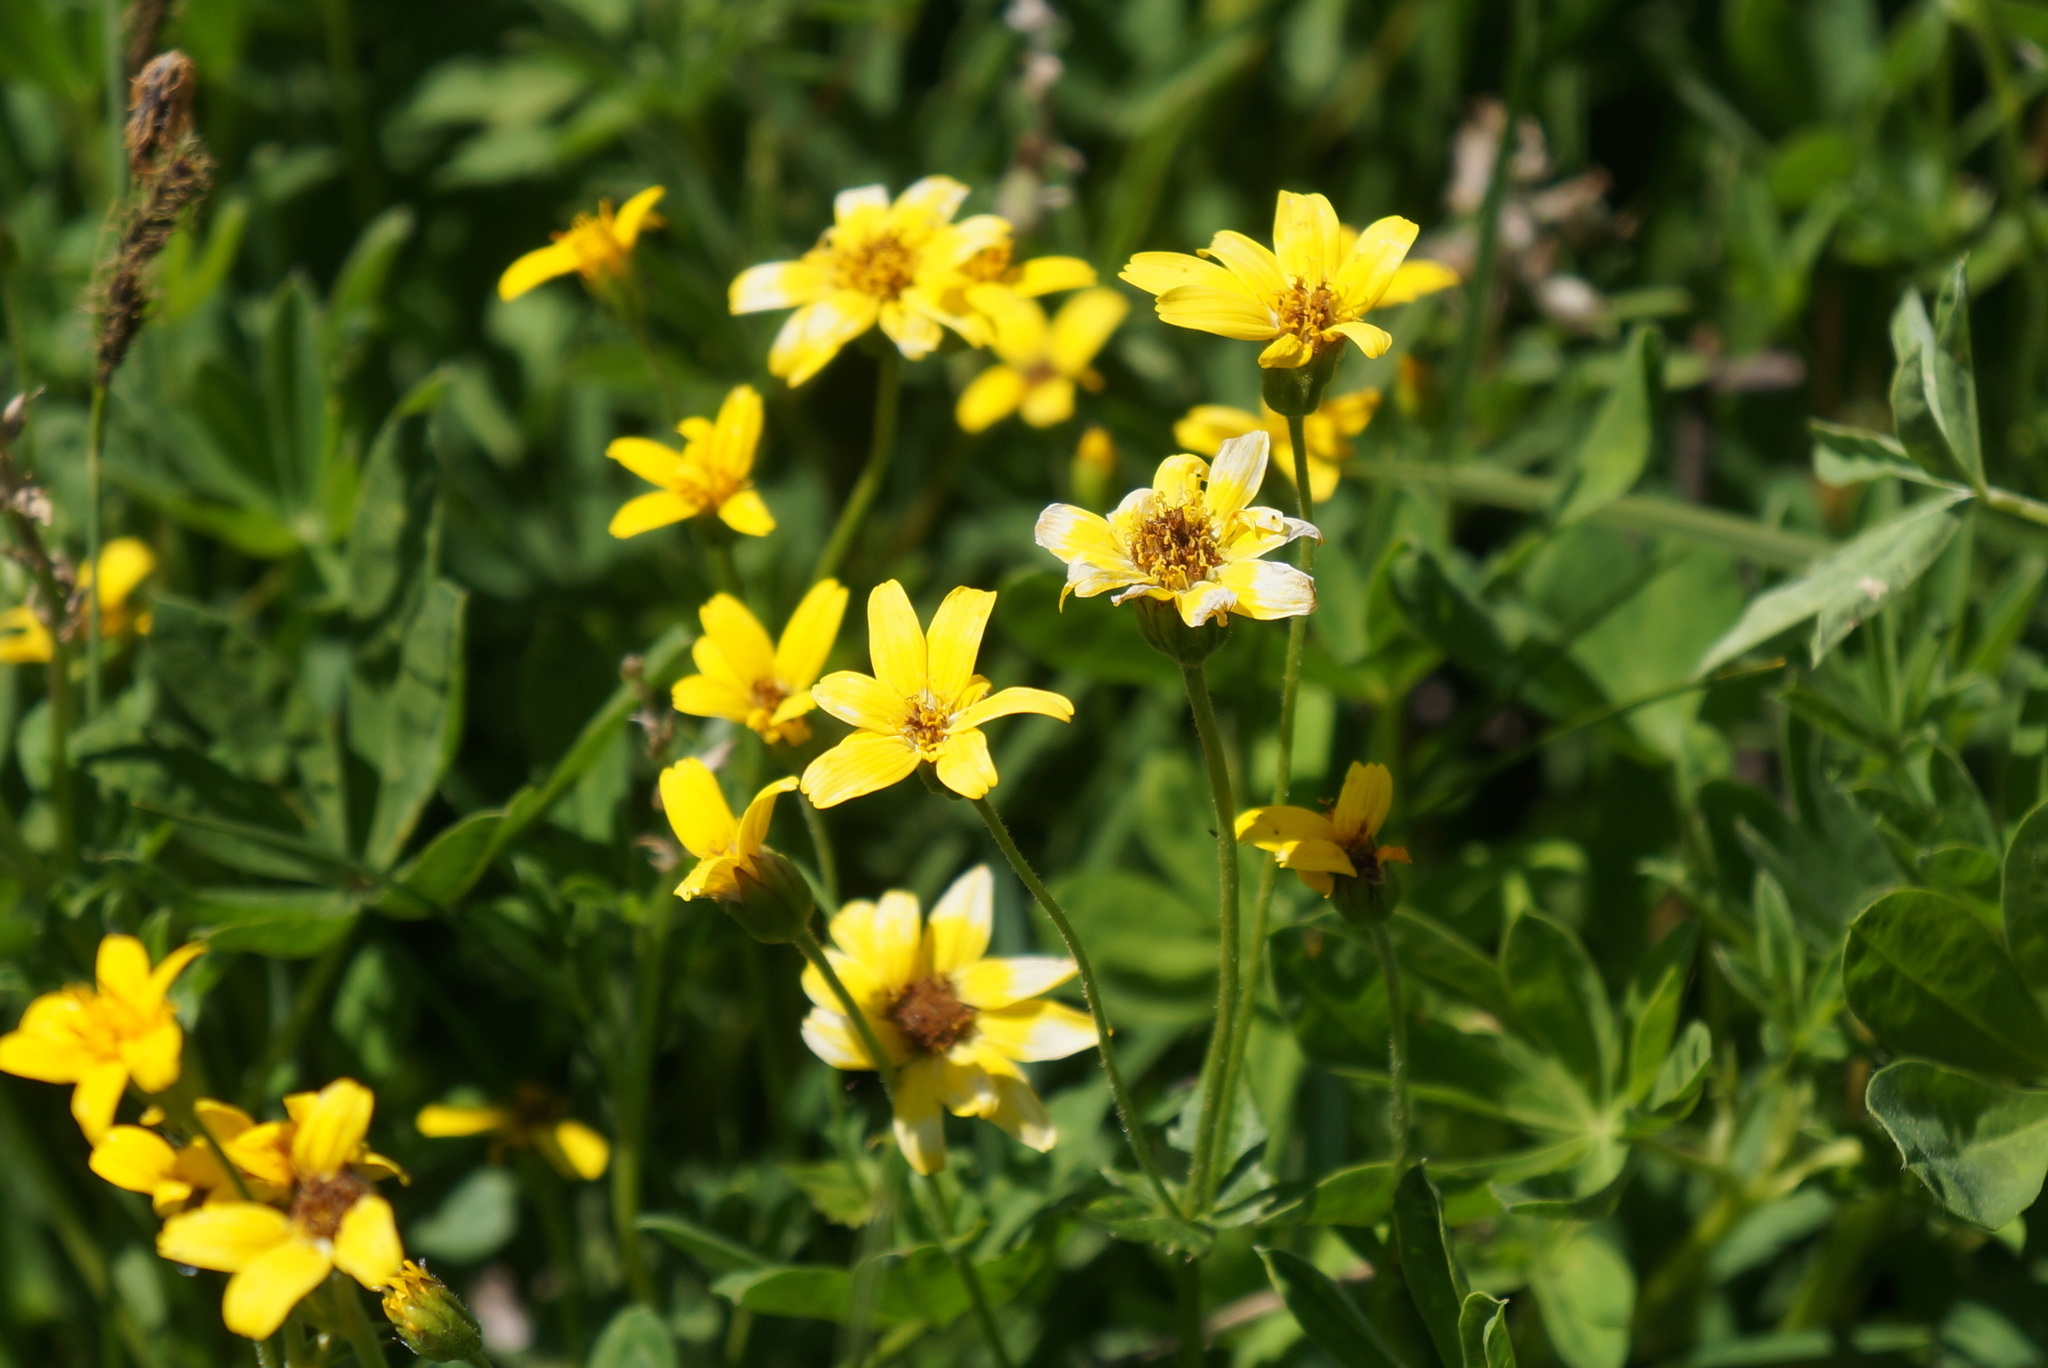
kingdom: Plantae
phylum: Tracheophyta
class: Magnoliopsida
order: Asterales
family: Asteraceae
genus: Arnica
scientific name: Arnica latifolia
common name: Arnica
